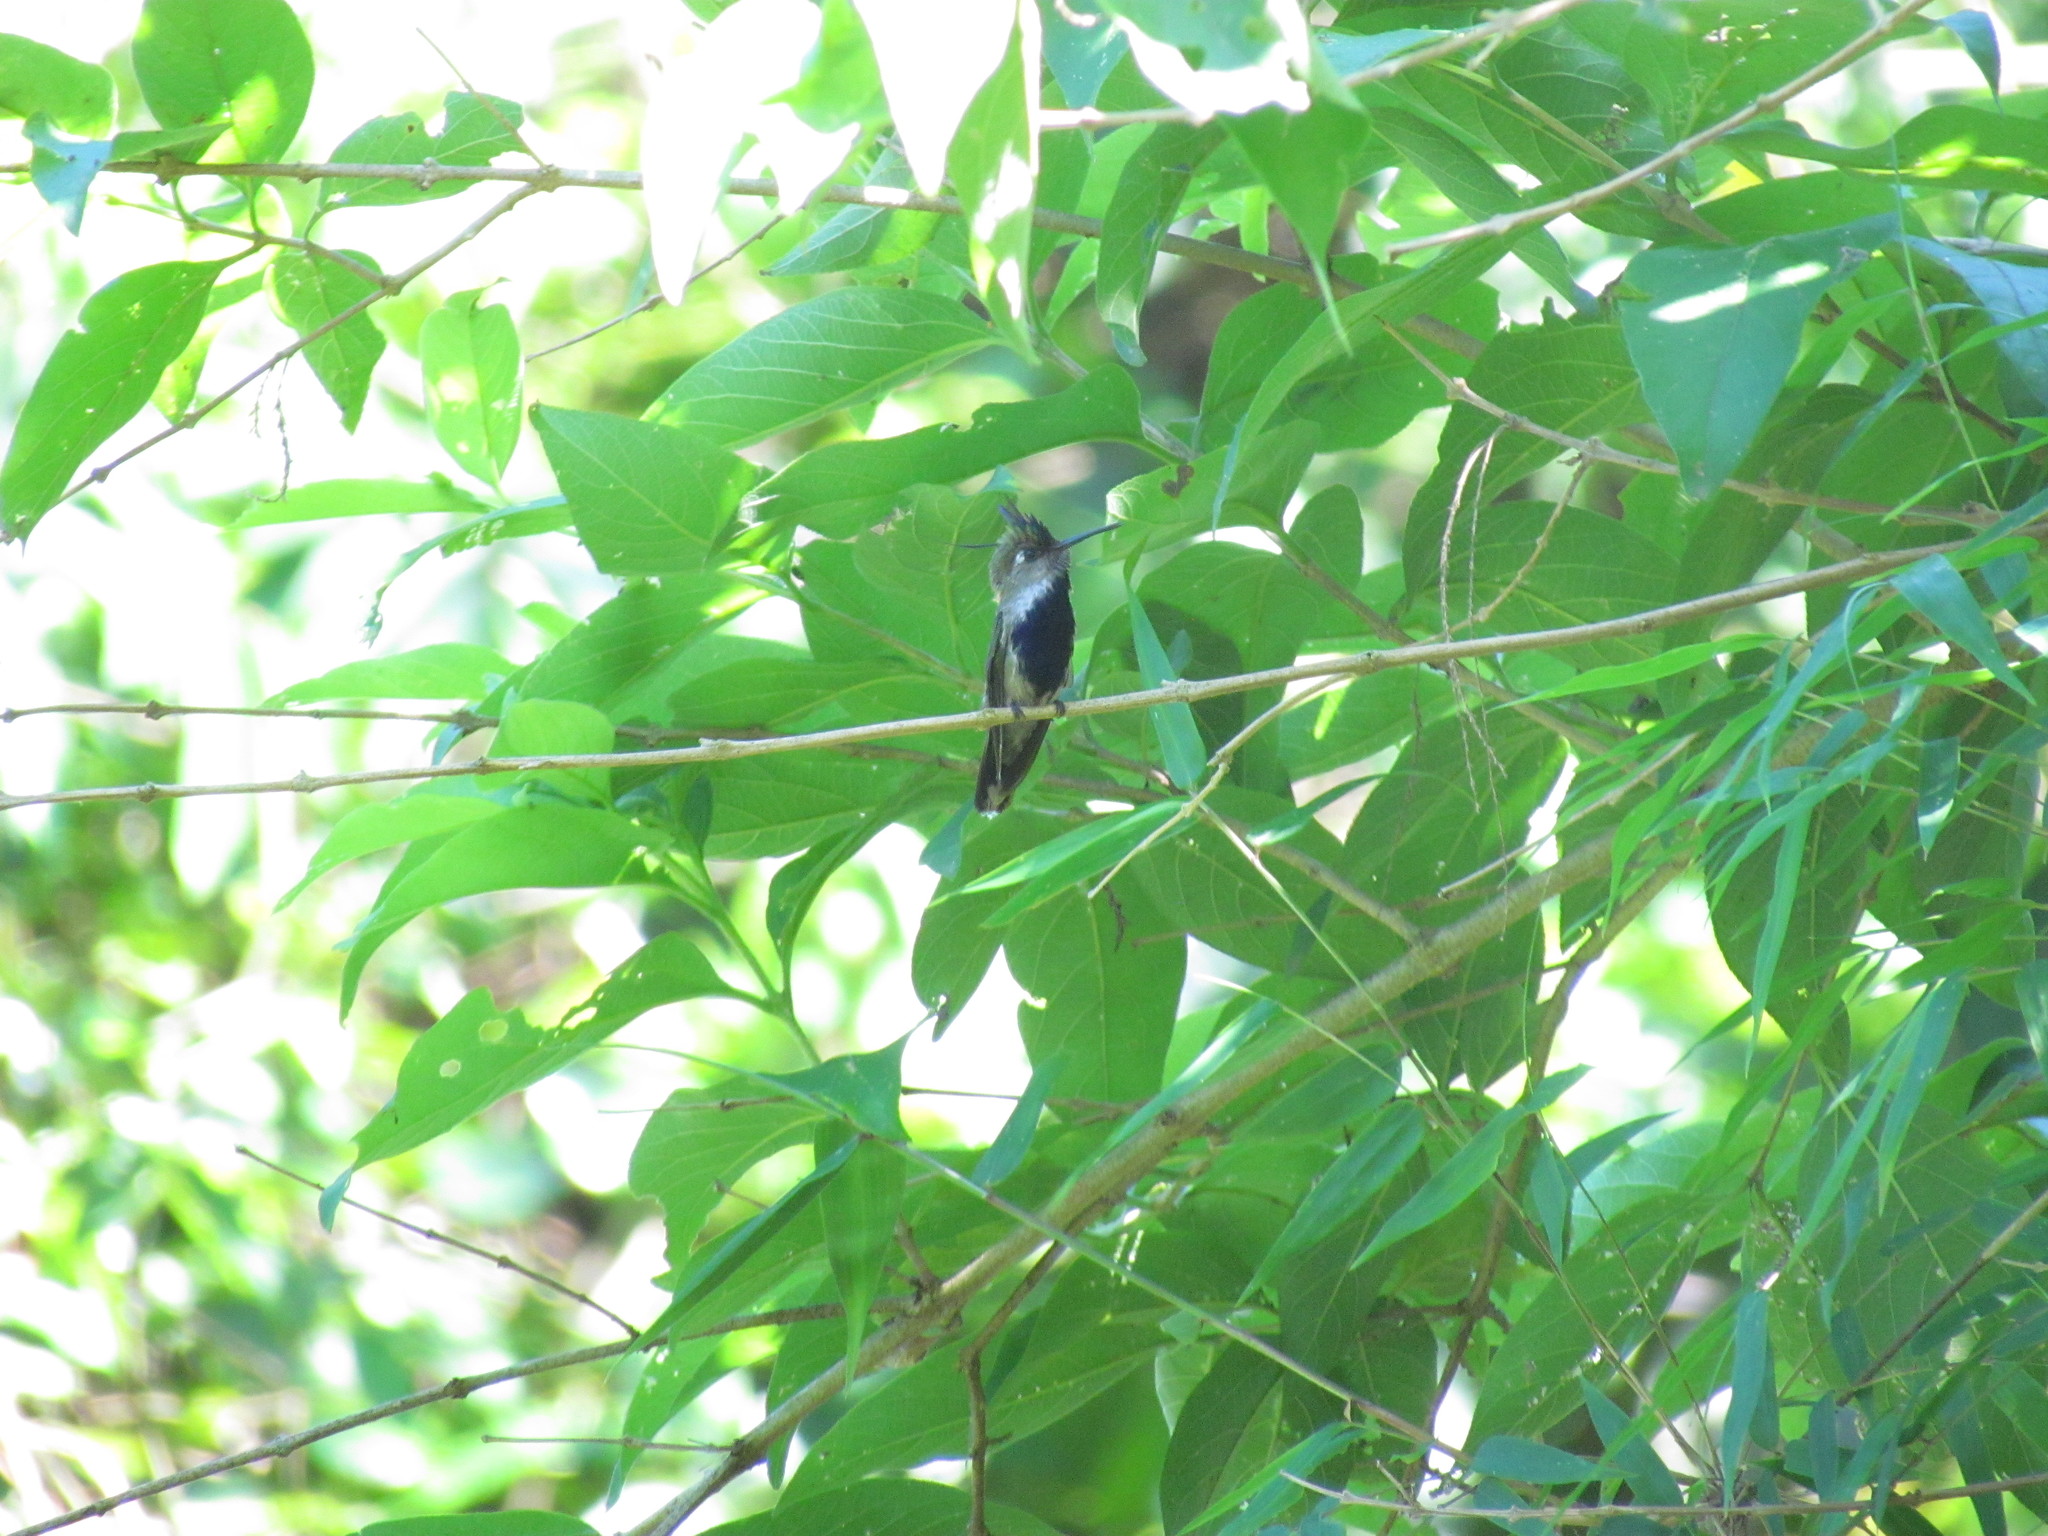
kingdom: Animalia
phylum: Chordata
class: Aves
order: Apodiformes
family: Trochilidae
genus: Stephanoxis
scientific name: Stephanoxis loddigesii
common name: Purple-crowned plovercrest
